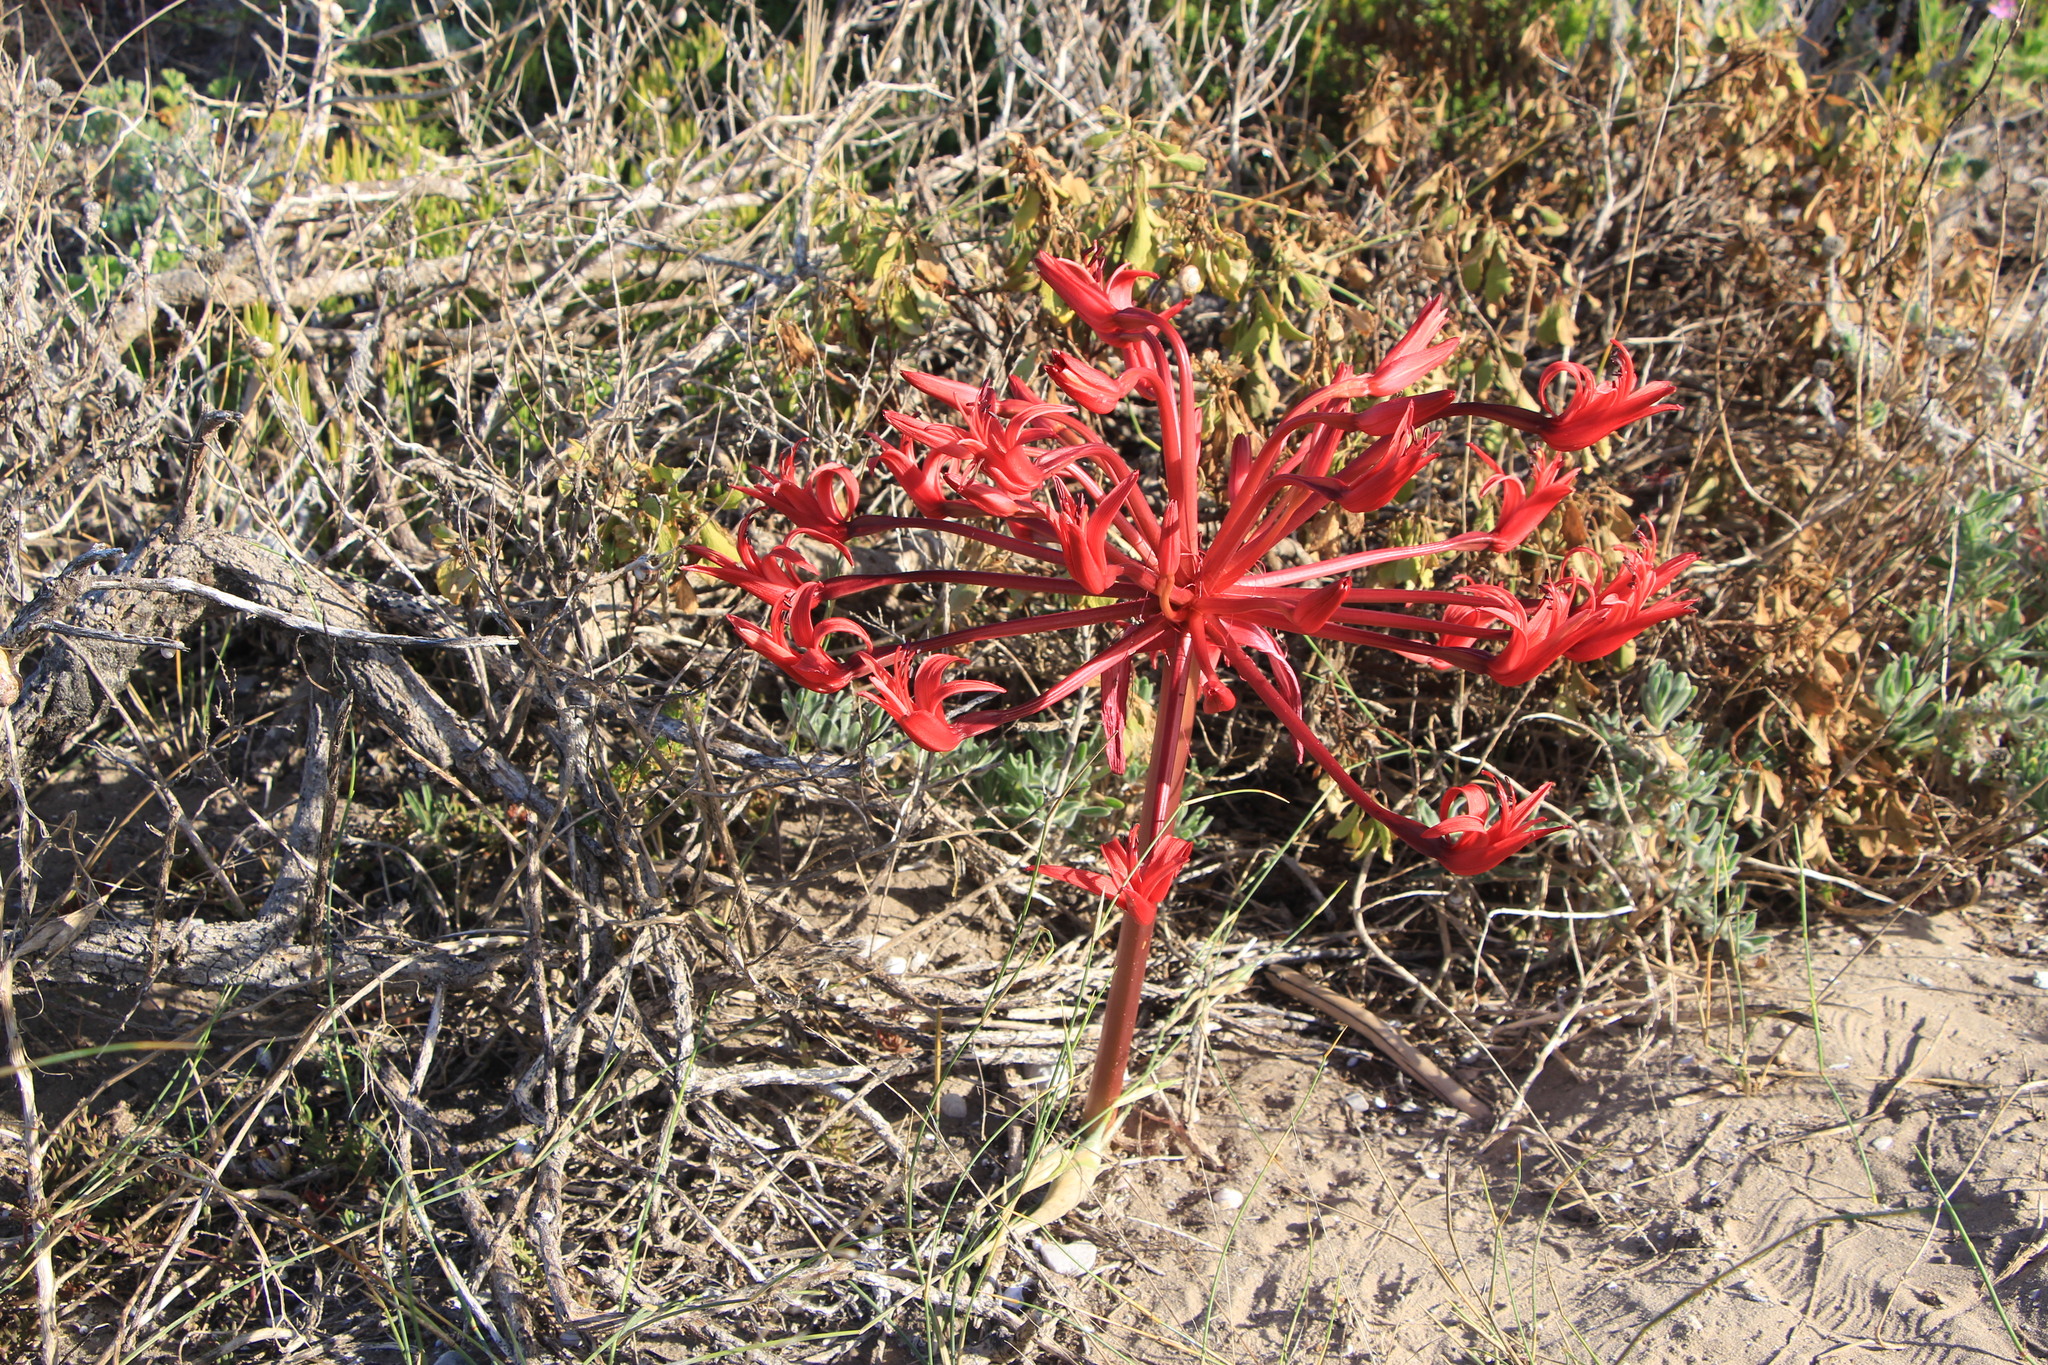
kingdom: Plantae
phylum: Tracheophyta
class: Liliopsida
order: Asparagales
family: Amaryllidaceae
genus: Brunsvigia
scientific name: Brunsvigia orientalis
